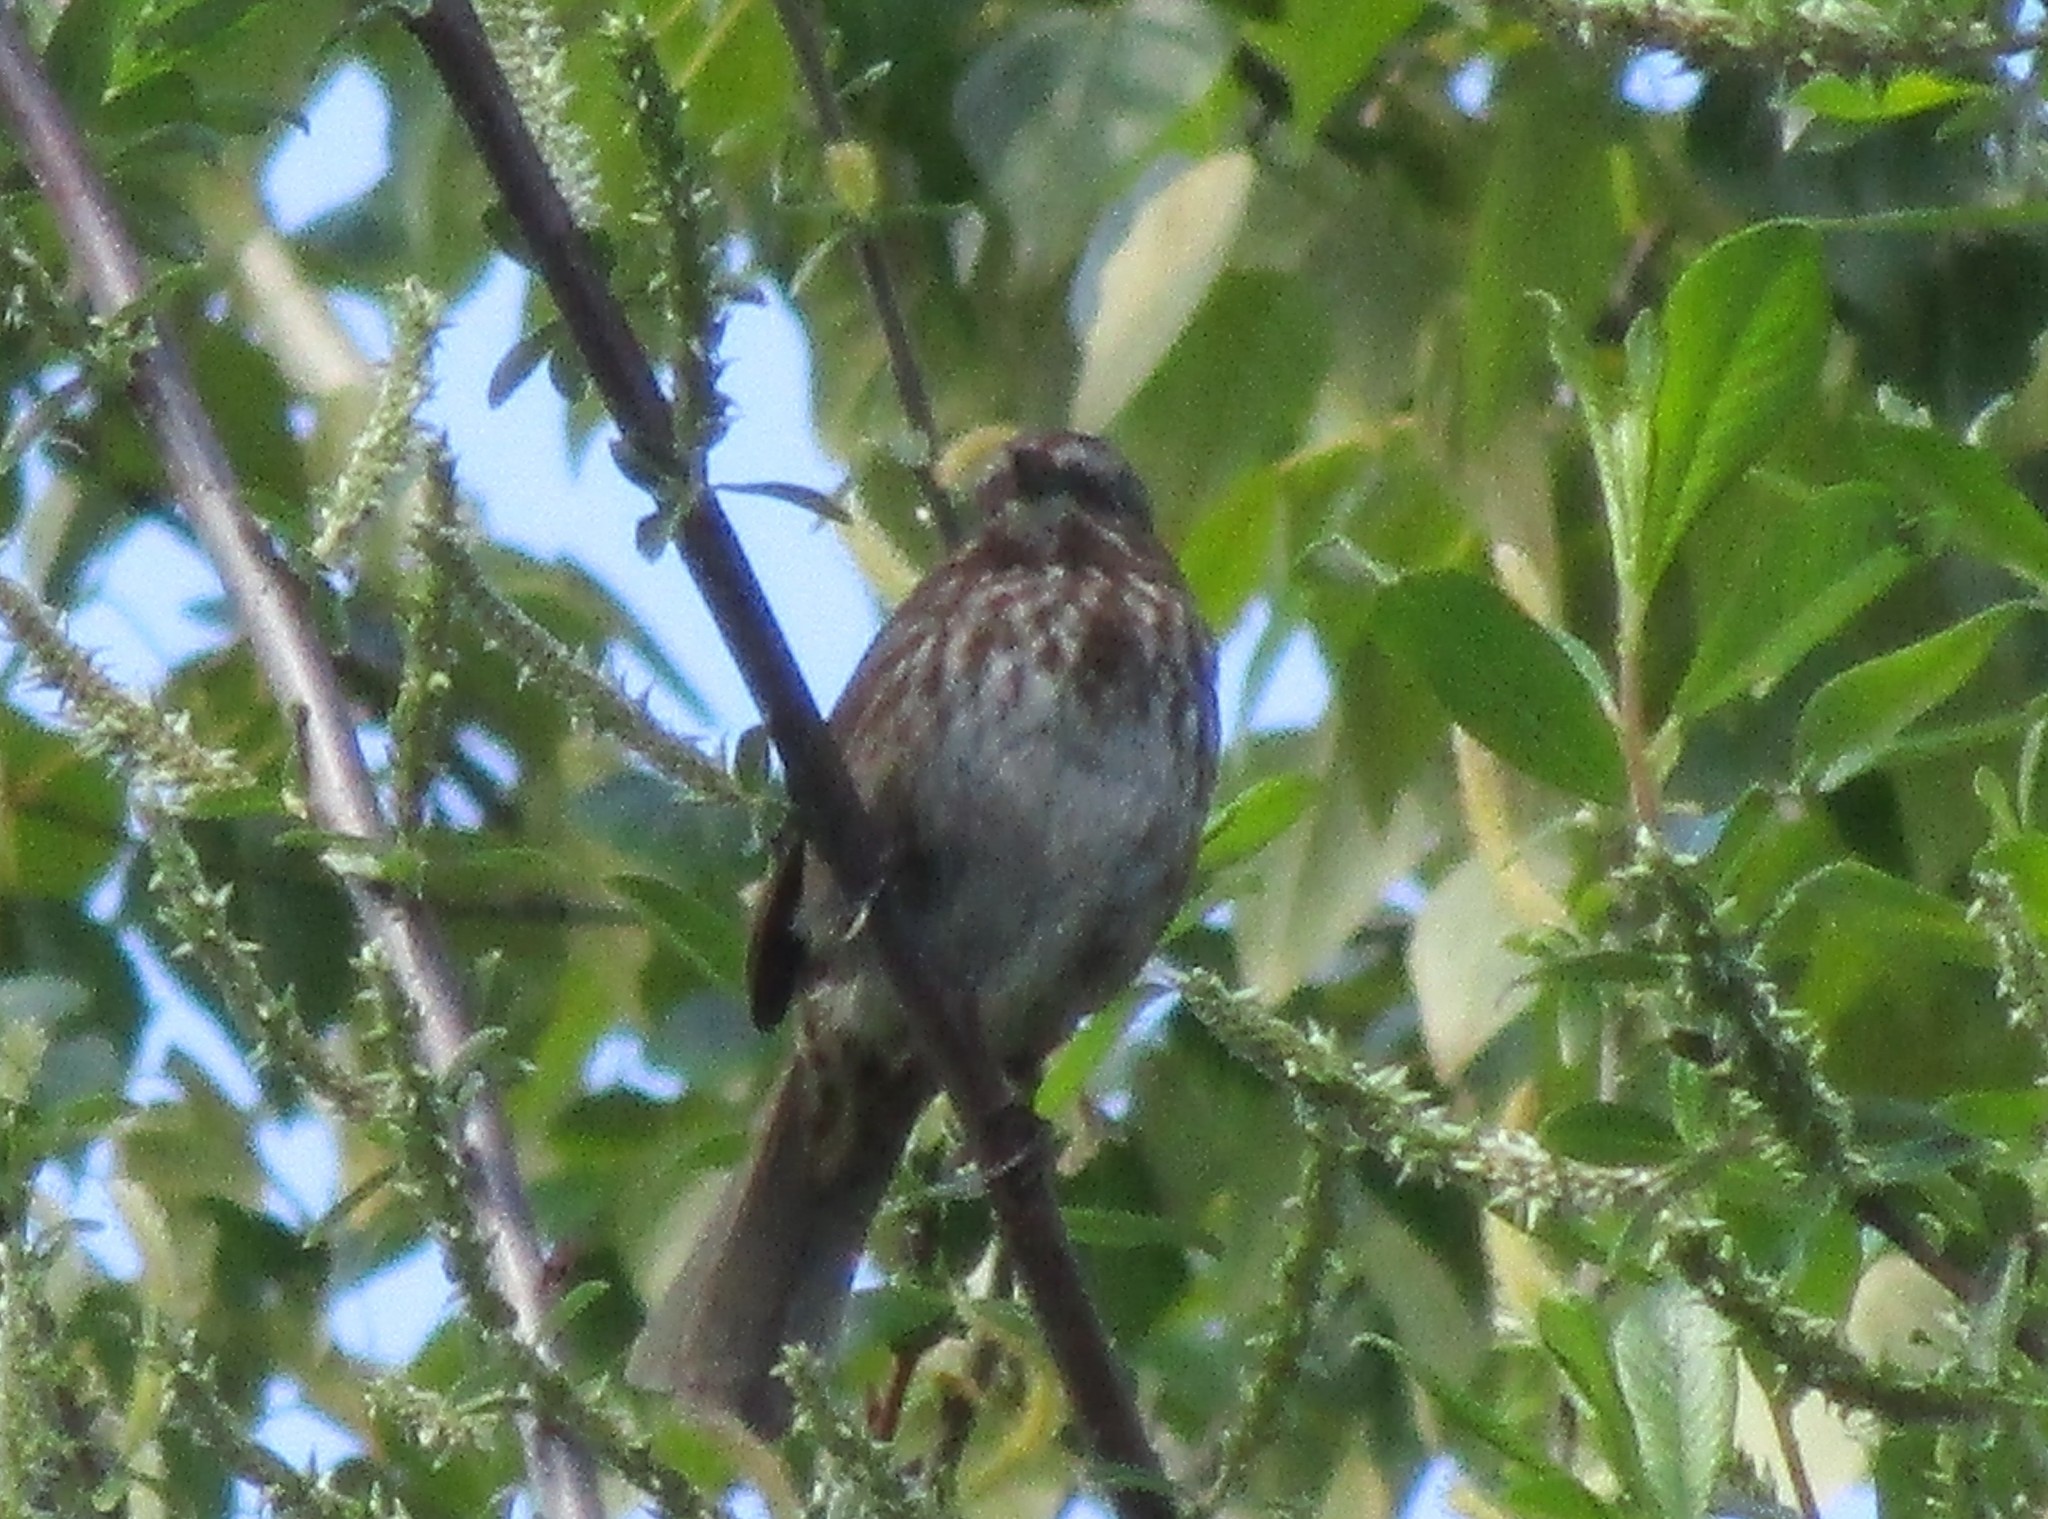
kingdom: Animalia
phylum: Chordata
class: Aves
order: Passeriformes
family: Passerellidae
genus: Melospiza
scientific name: Melospiza melodia
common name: Song sparrow
